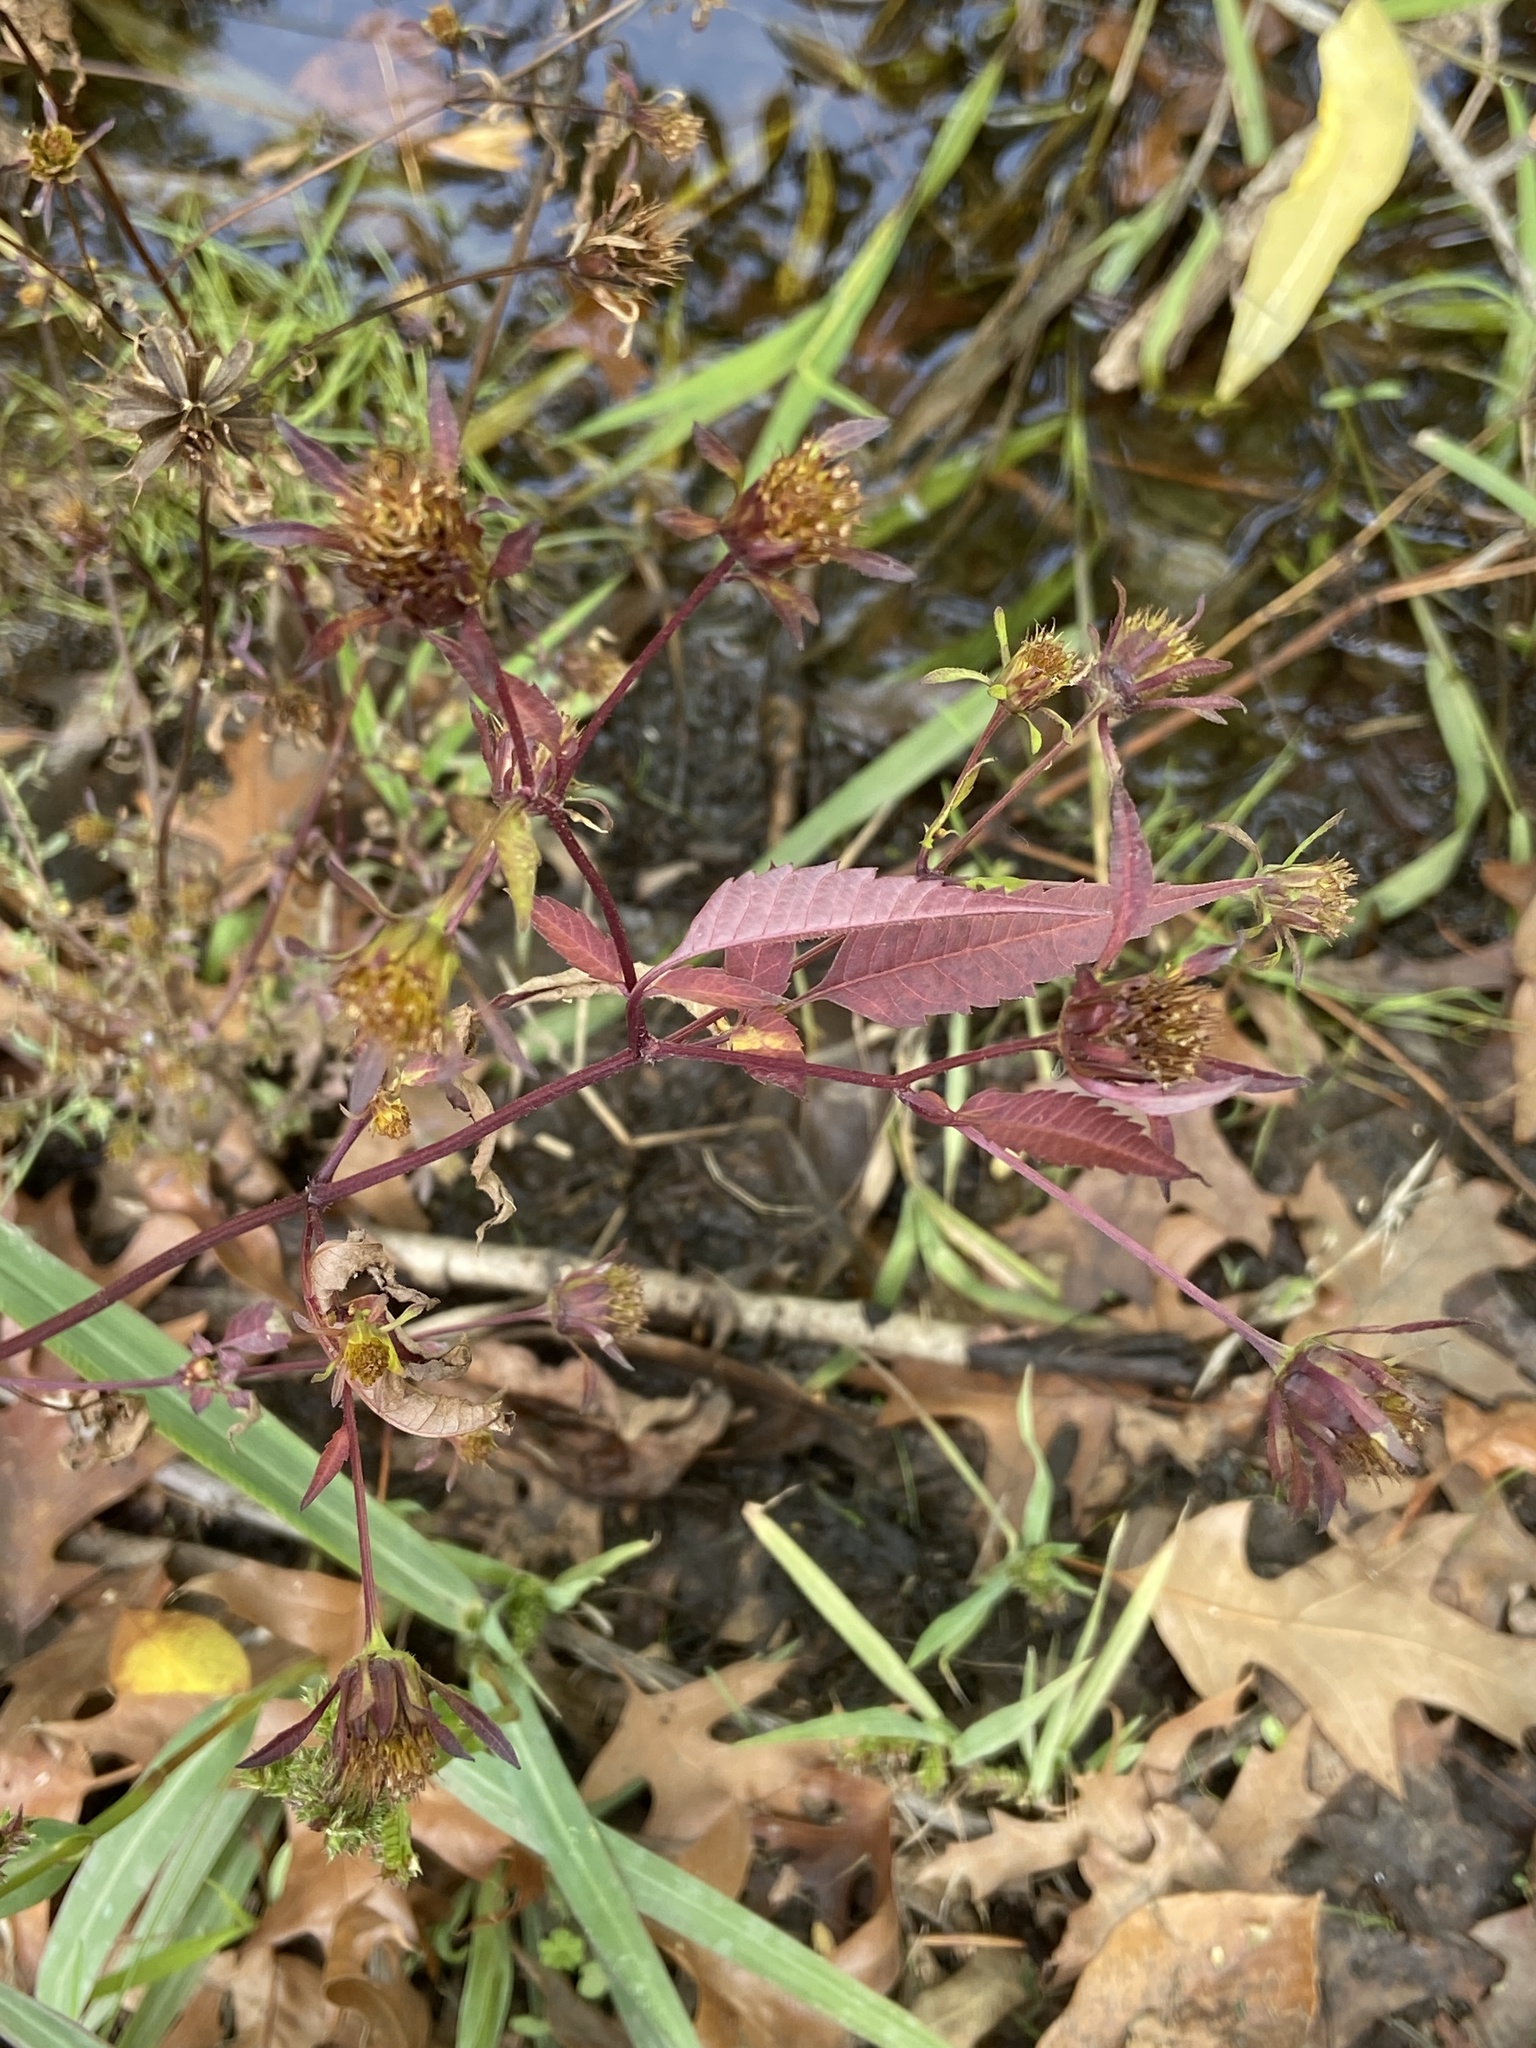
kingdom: Plantae
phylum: Tracheophyta
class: Magnoliopsida
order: Asterales
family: Asteraceae
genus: Bidens
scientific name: Bidens frondosa
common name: Beggarticks
